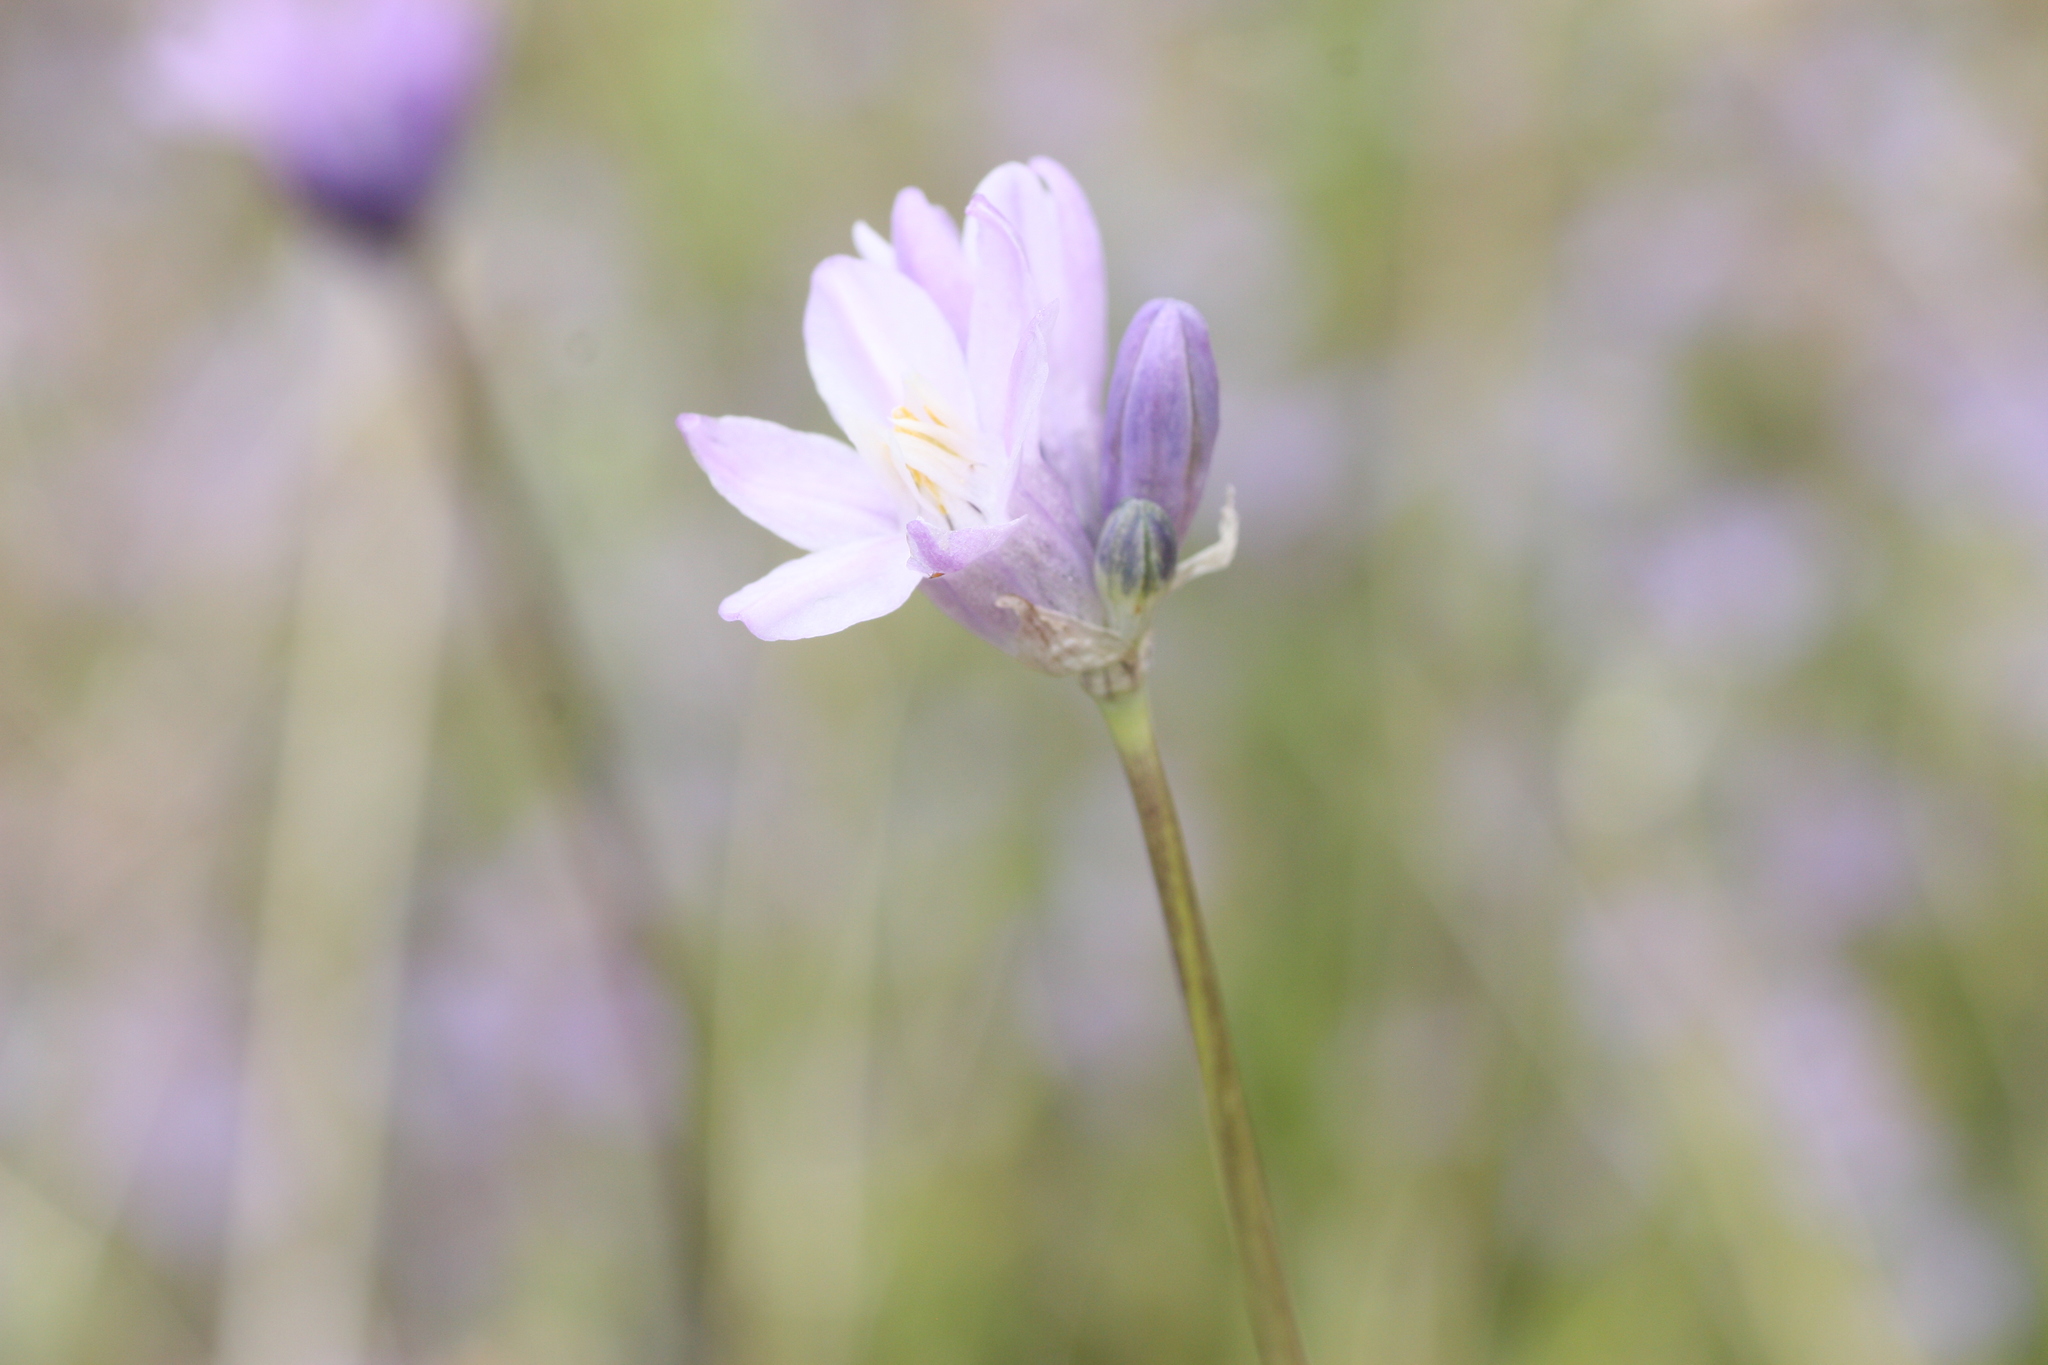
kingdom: Plantae
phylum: Tracheophyta
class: Liliopsida
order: Asparagales
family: Asparagaceae
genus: Dipterostemon
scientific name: Dipterostemon capitatus
